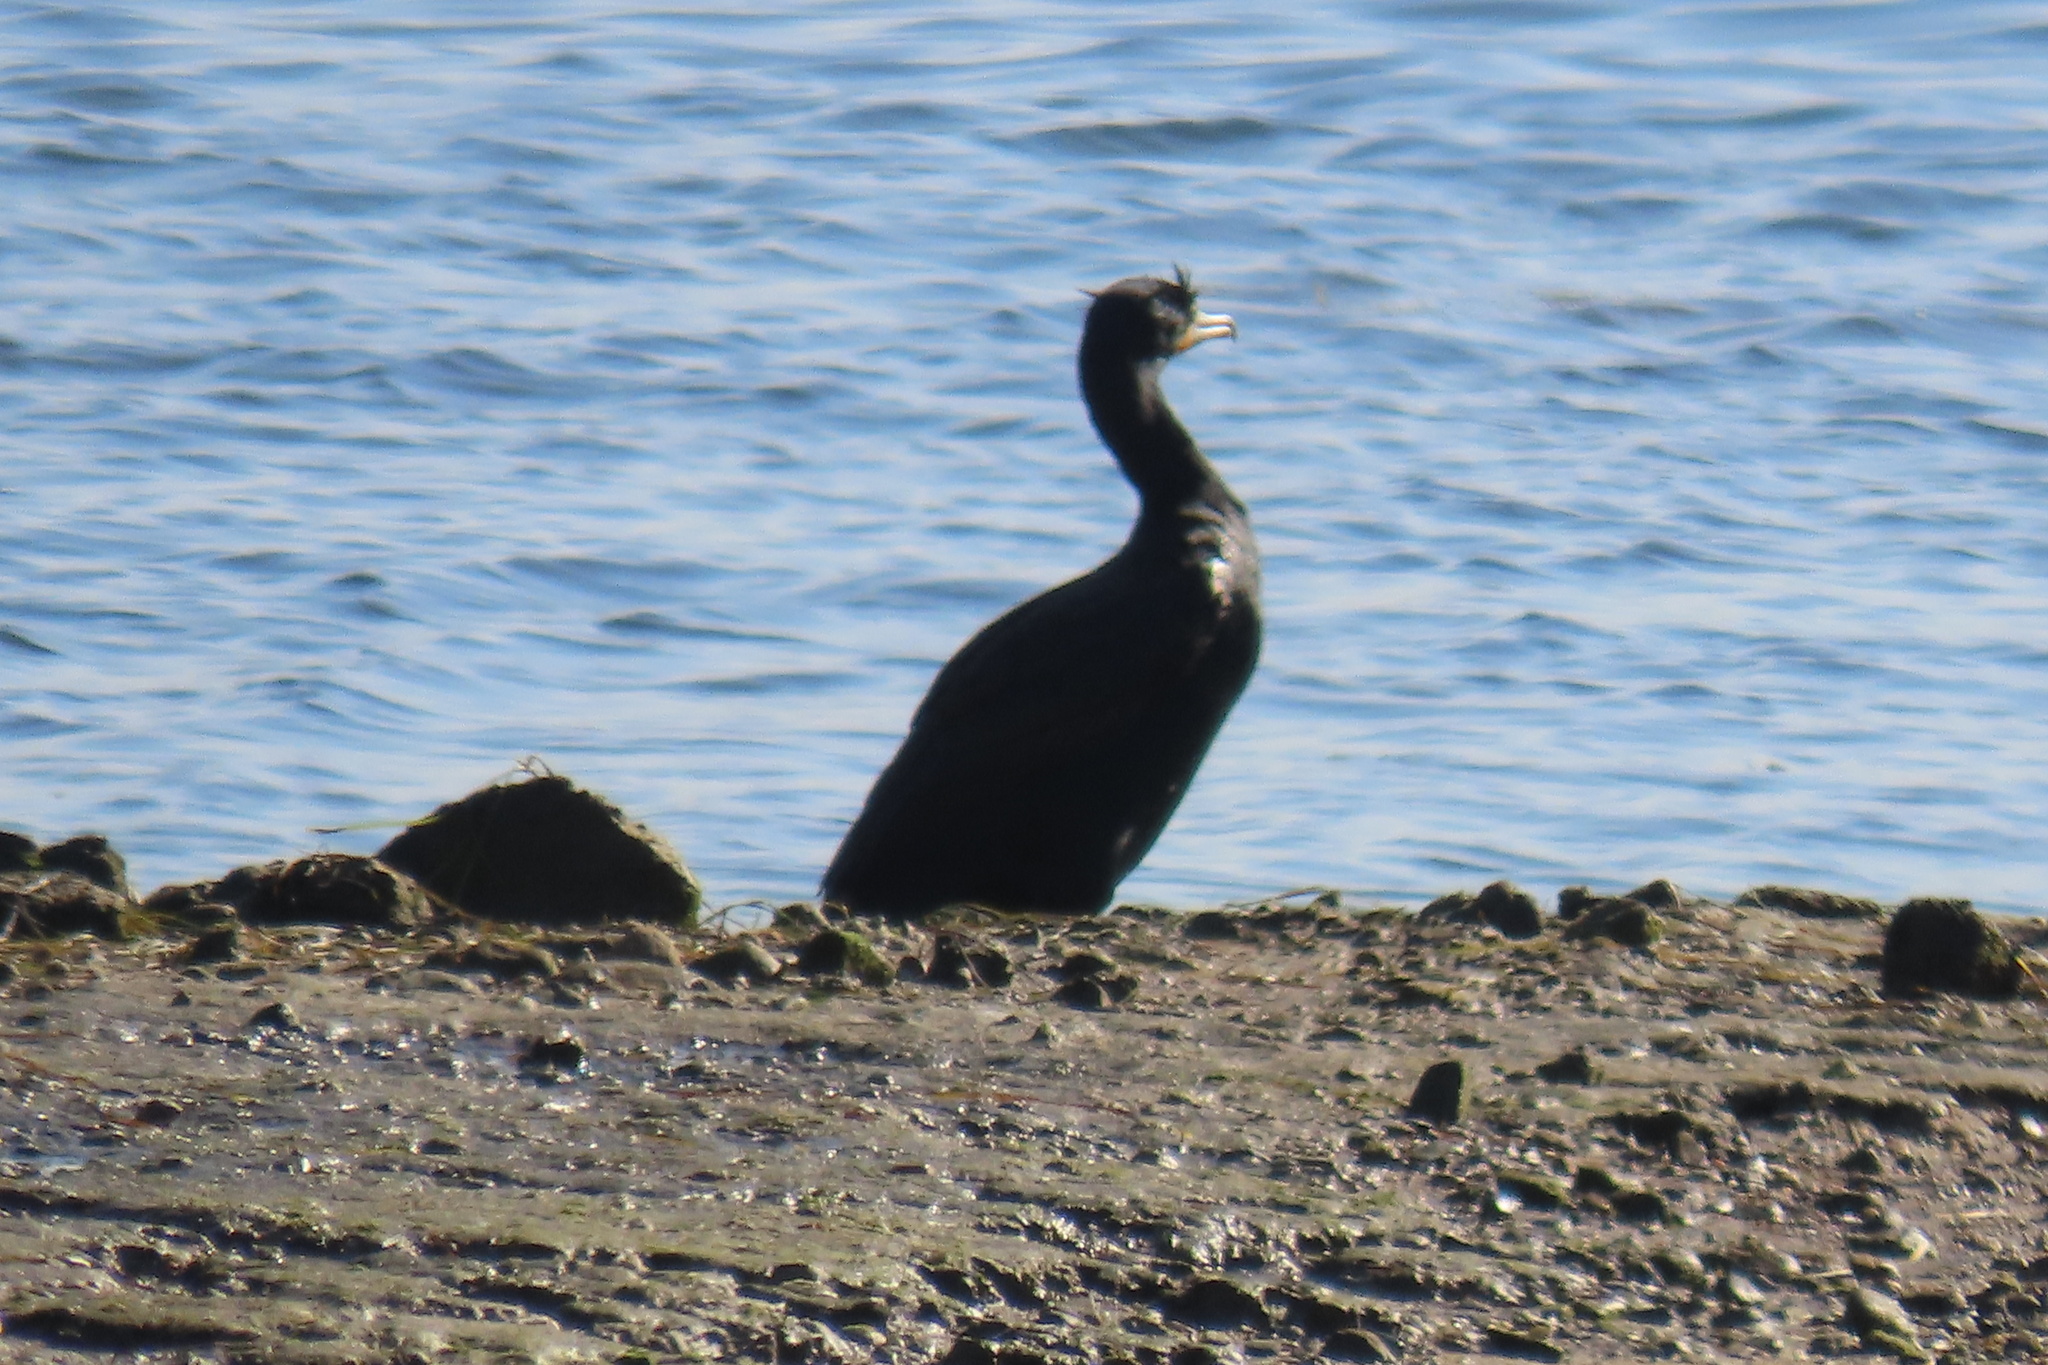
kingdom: Animalia
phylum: Chordata
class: Aves
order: Suliformes
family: Phalacrocoracidae
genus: Phalacrocorax
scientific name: Phalacrocorax auritus
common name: Double-crested cormorant
